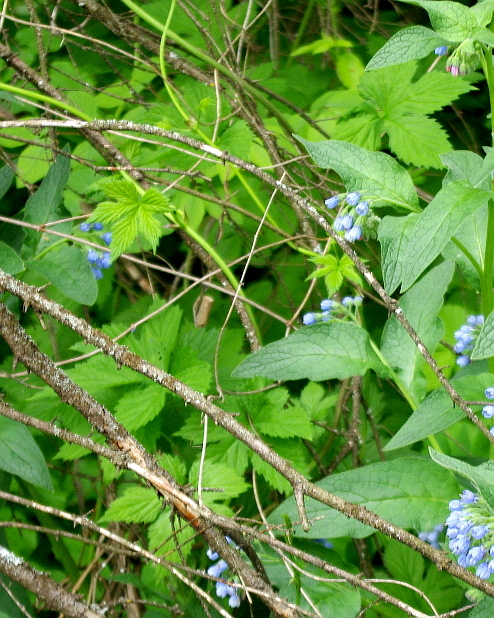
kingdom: Plantae
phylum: Tracheophyta
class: Magnoliopsida
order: Rosales
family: Cannabaceae
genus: Humulus
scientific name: Humulus lupulus
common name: Hop
